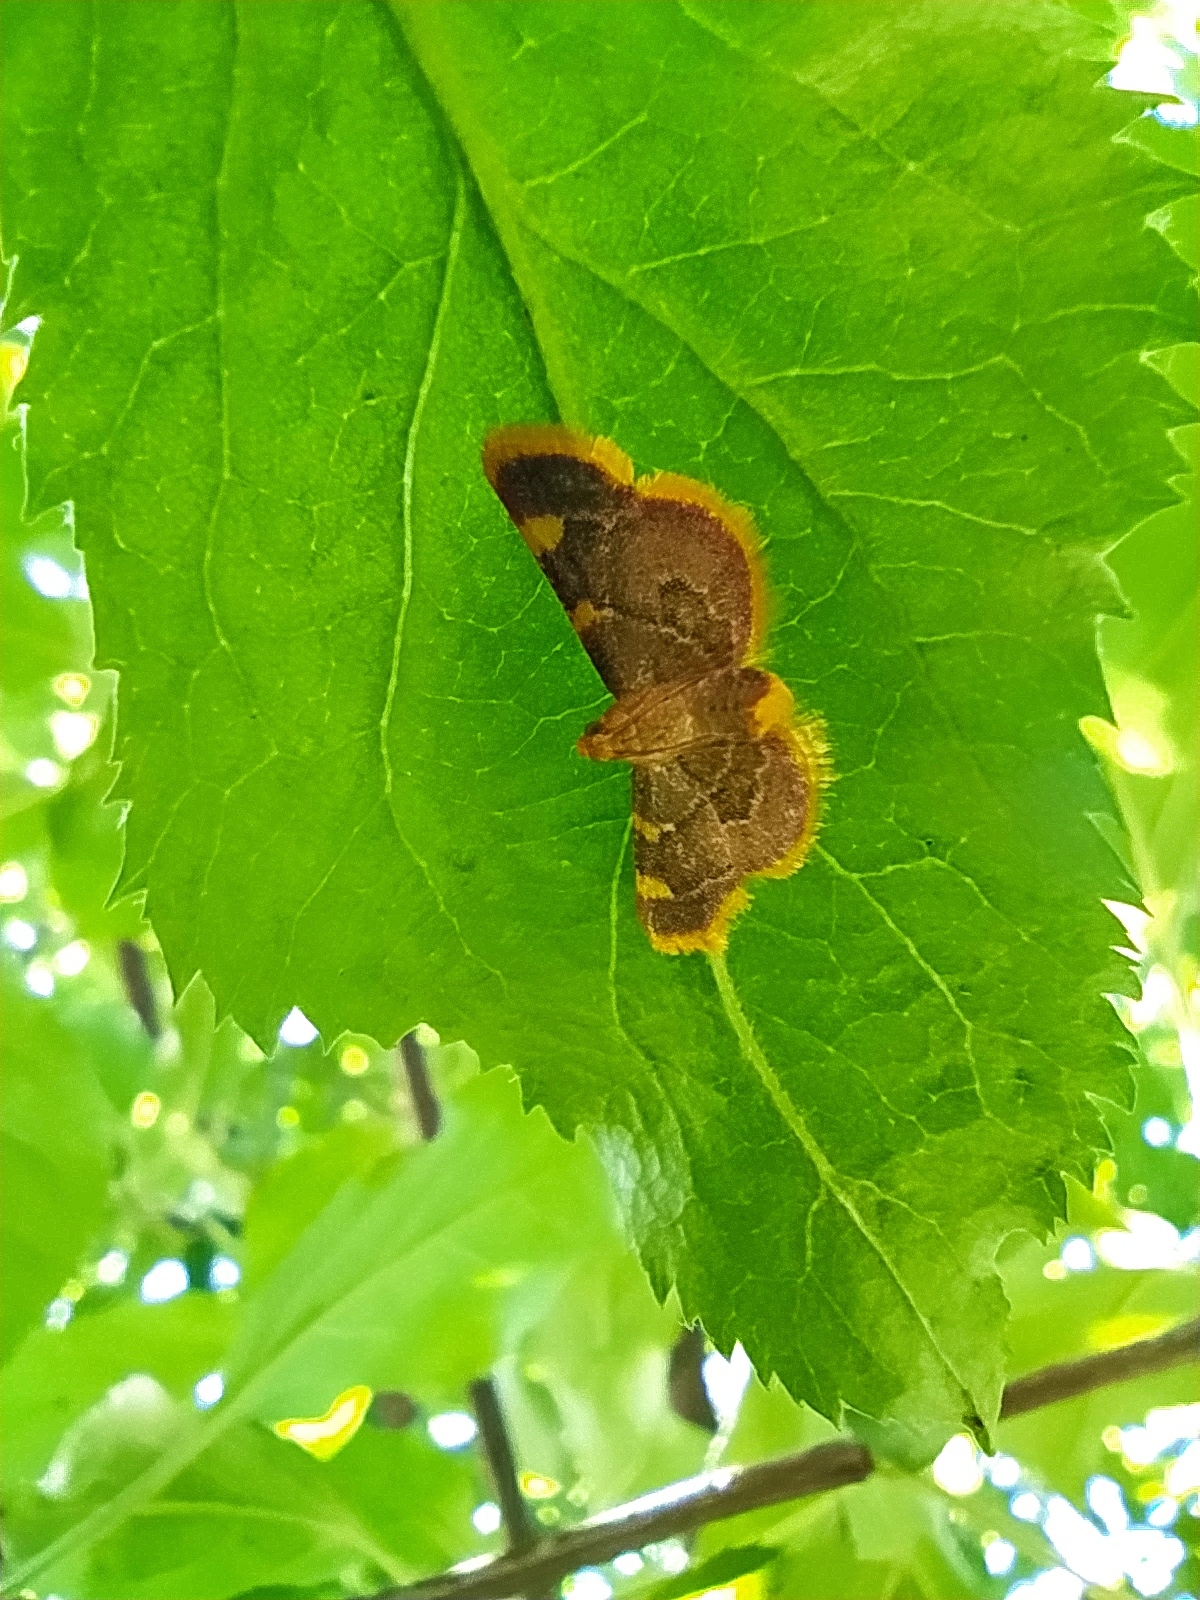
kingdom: Animalia
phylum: Arthropoda
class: Insecta
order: Lepidoptera
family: Pyralidae
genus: Hypsopygia
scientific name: Hypsopygia costalis
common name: Gold triangle
